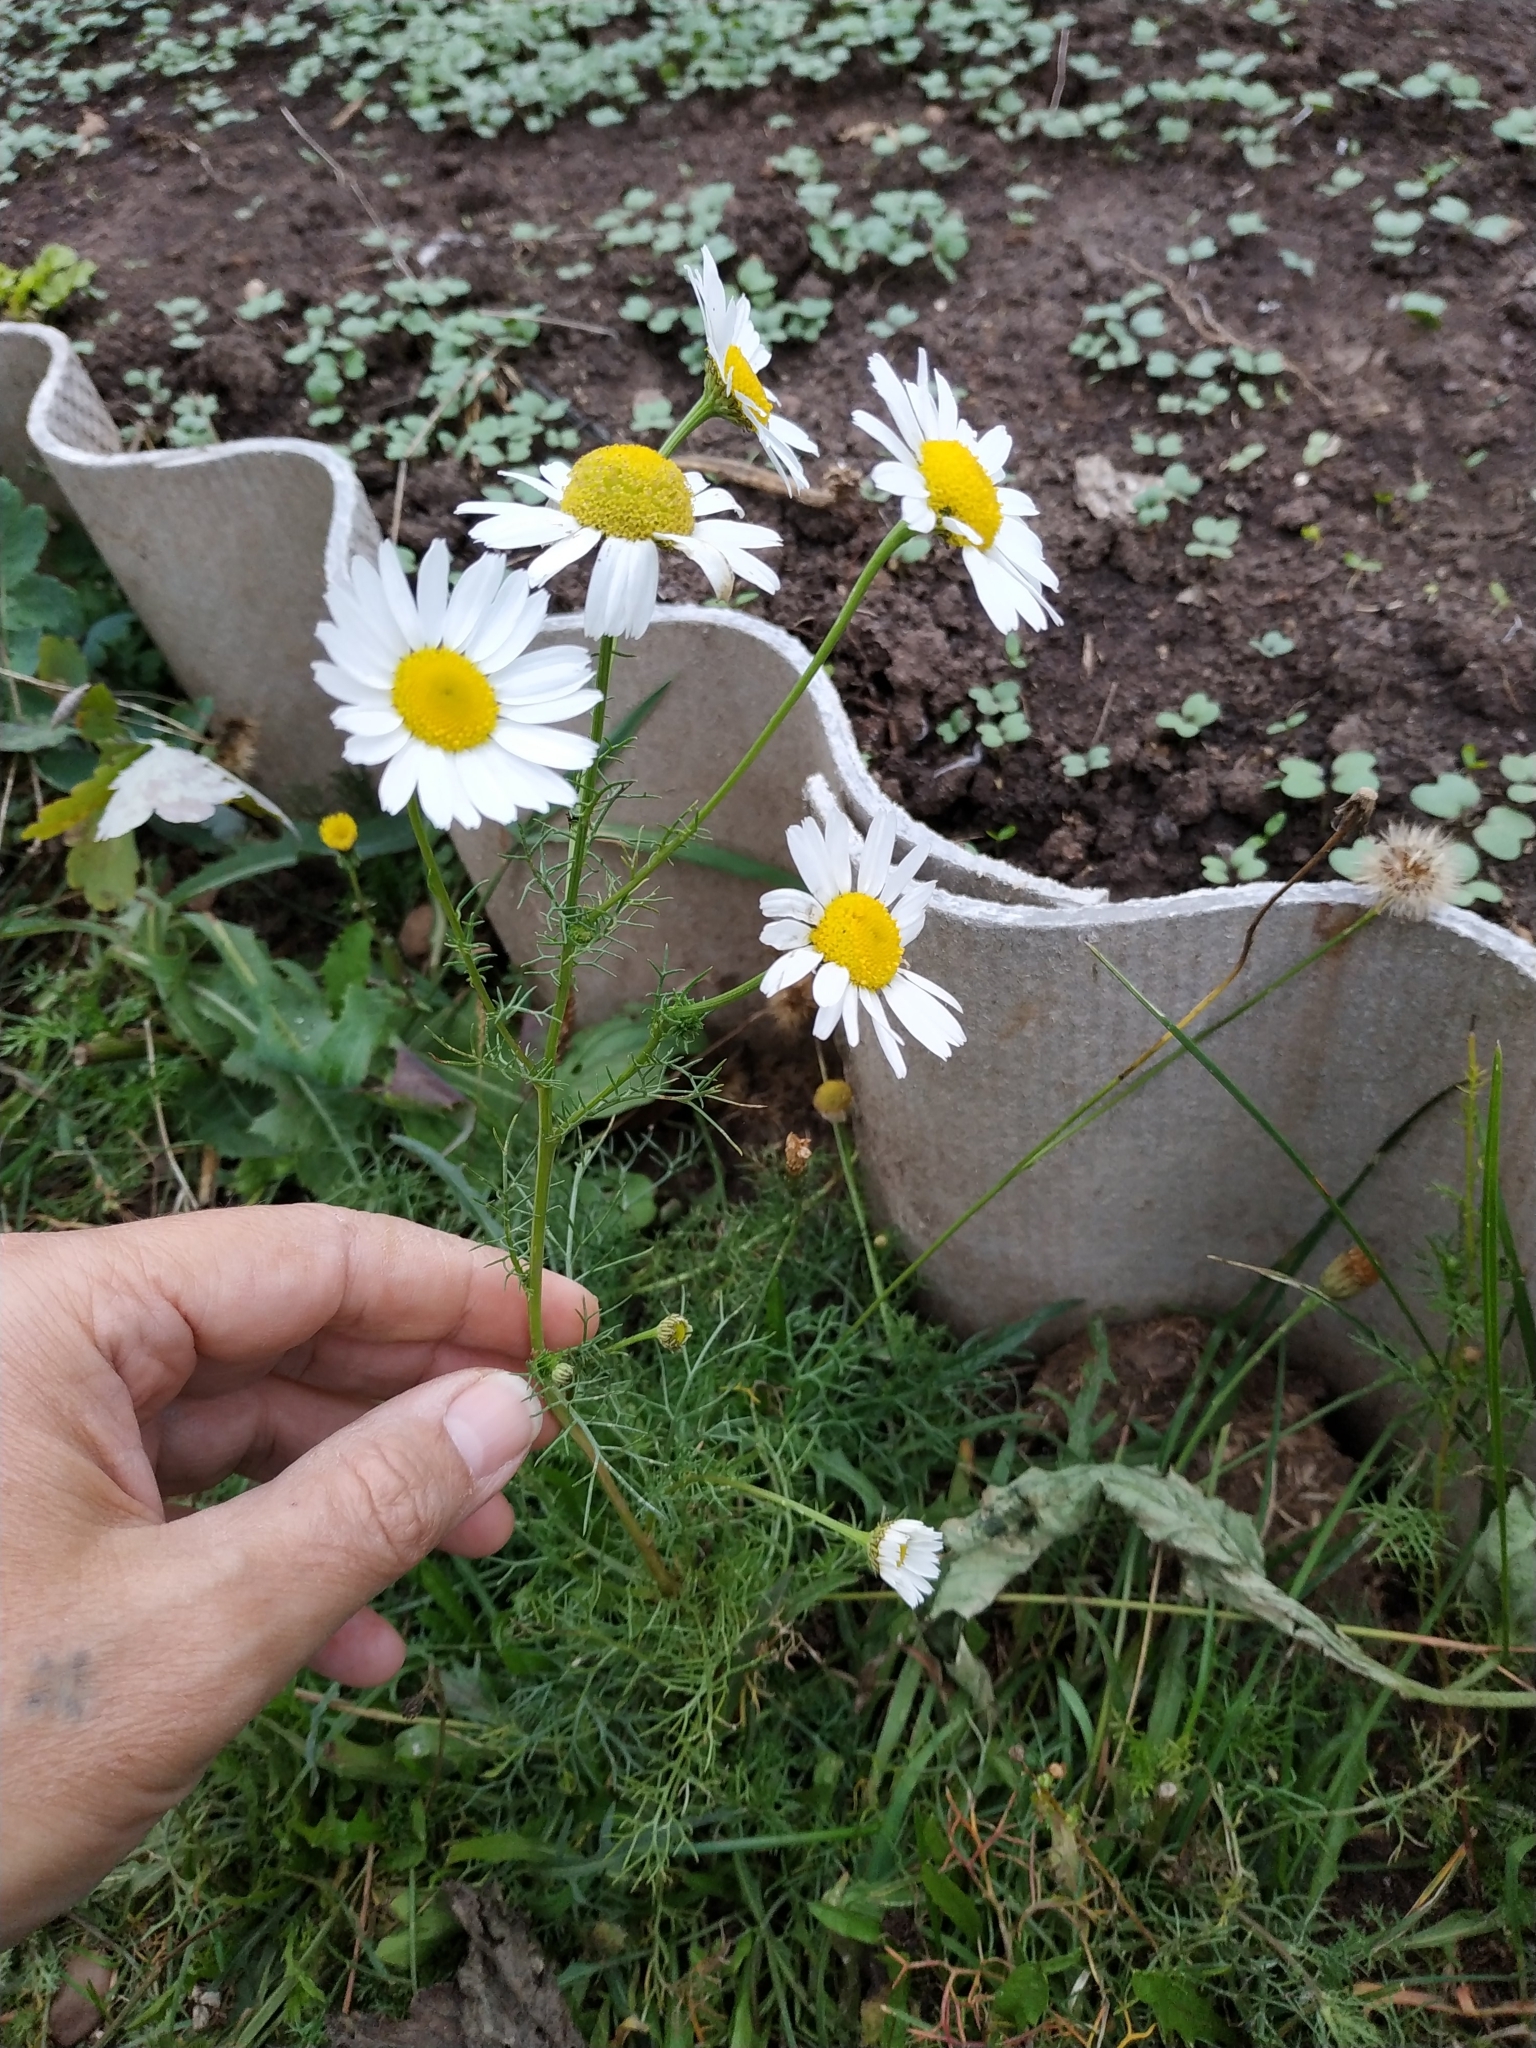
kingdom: Plantae
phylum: Tracheophyta
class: Magnoliopsida
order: Asterales
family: Asteraceae
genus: Tripleurospermum
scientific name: Tripleurospermum inodorum
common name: Scentless mayweed
